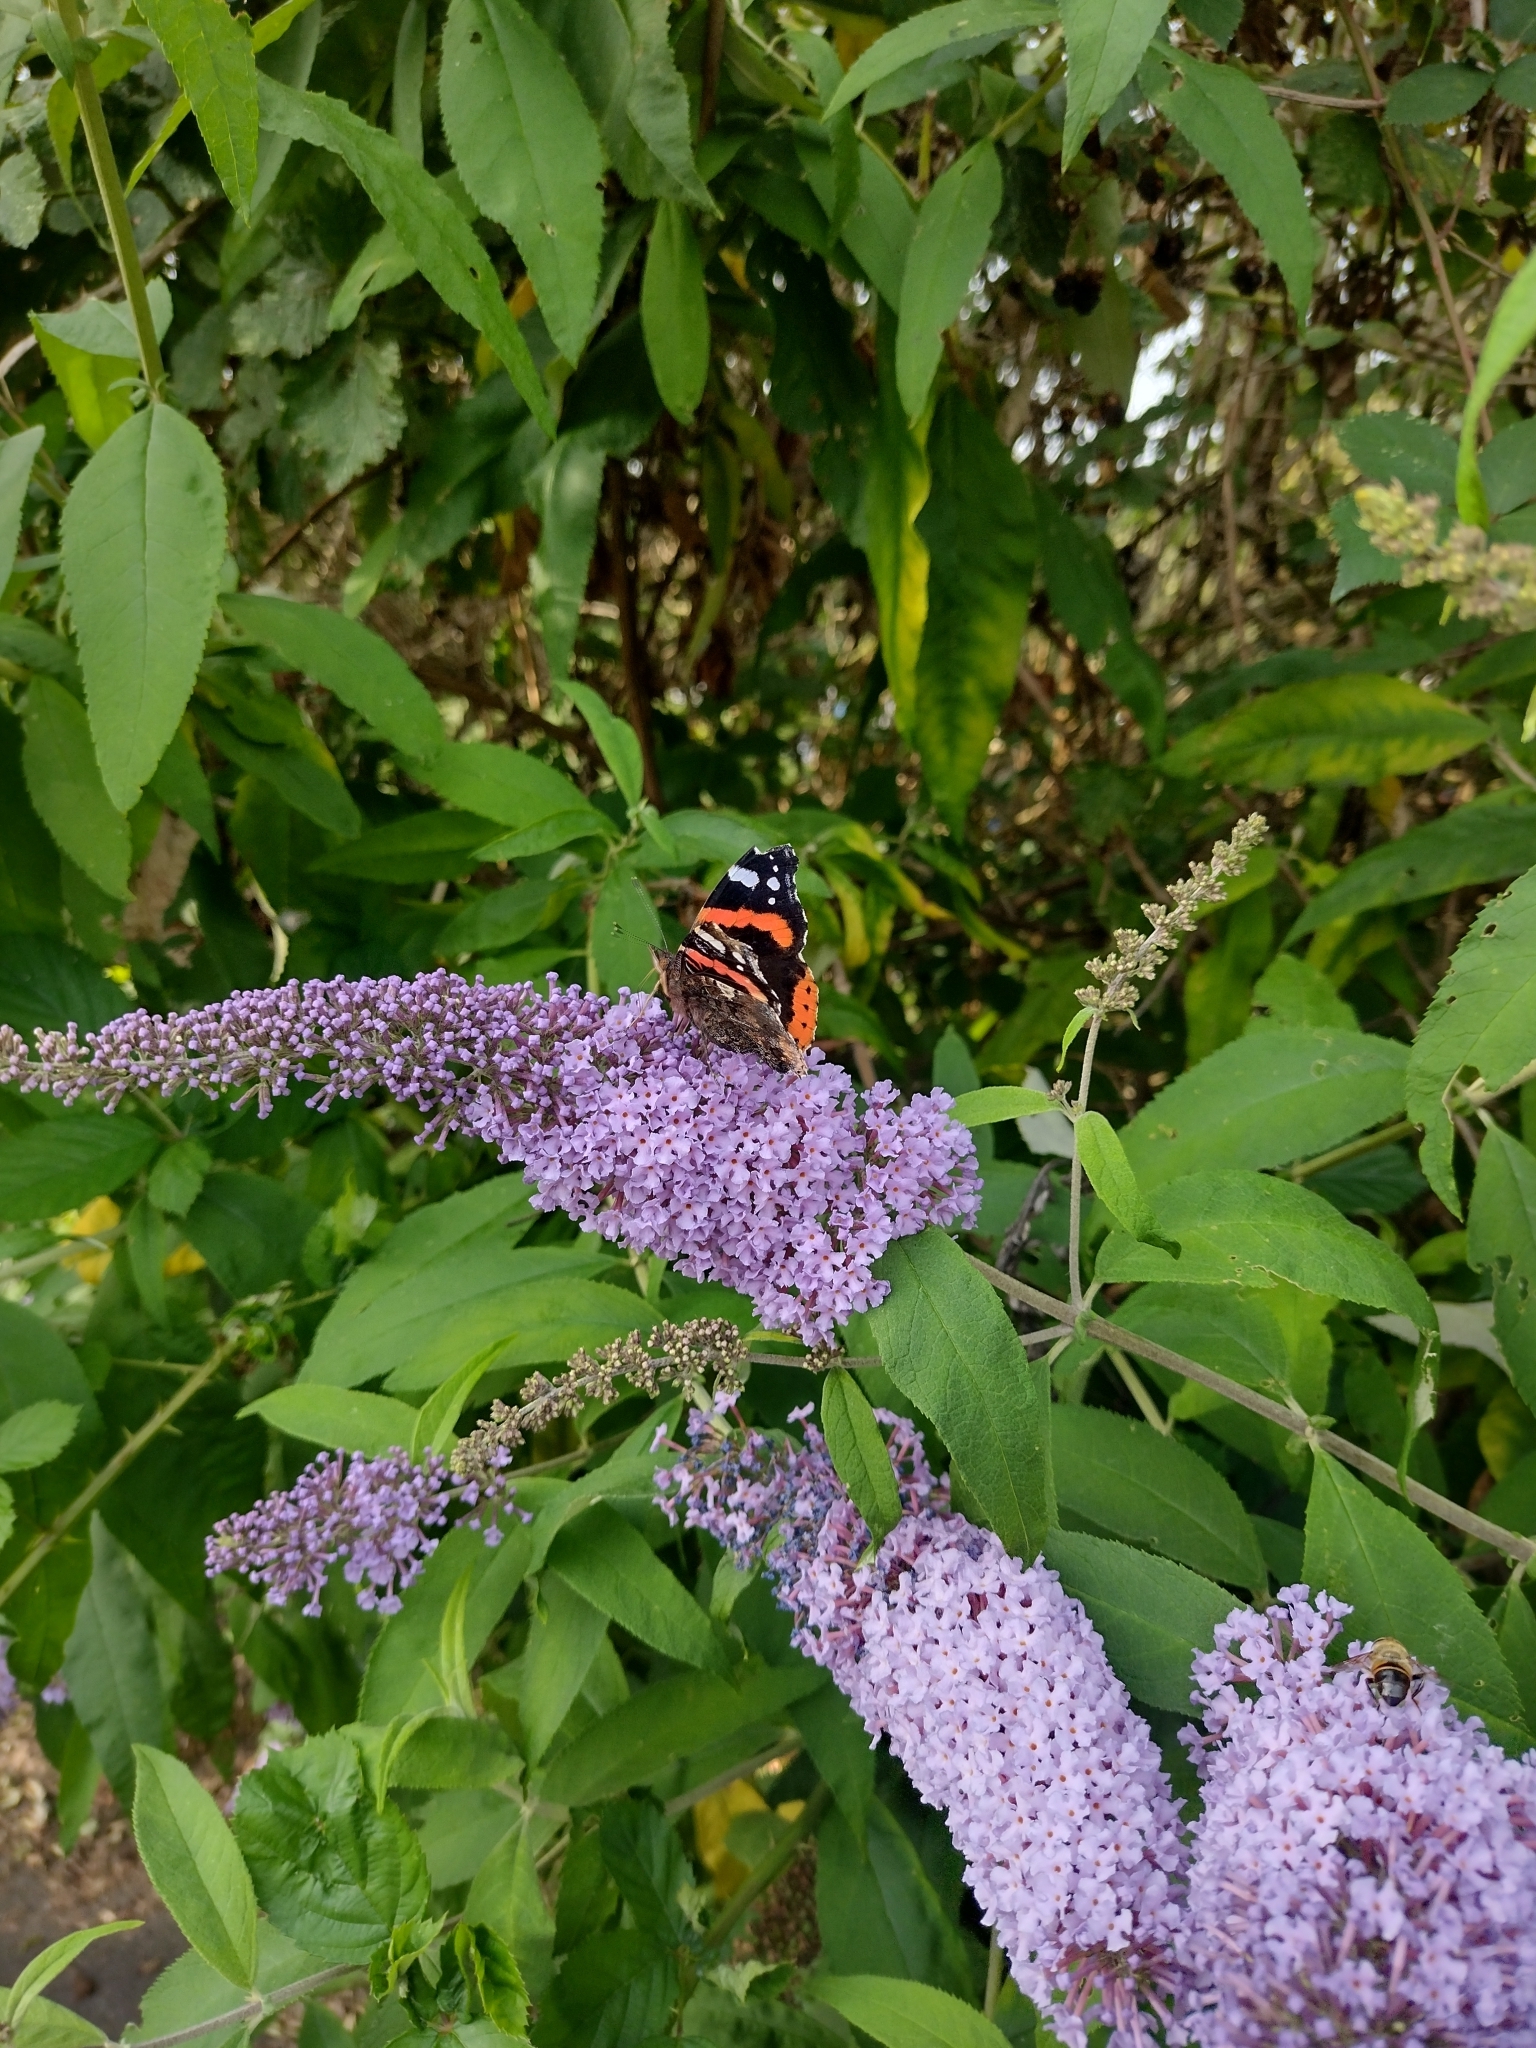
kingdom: Animalia
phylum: Arthropoda
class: Insecta
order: Lepidoptera
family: Nymphalidae
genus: Vanessa
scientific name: Vanessa atalanta
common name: Red admiral
